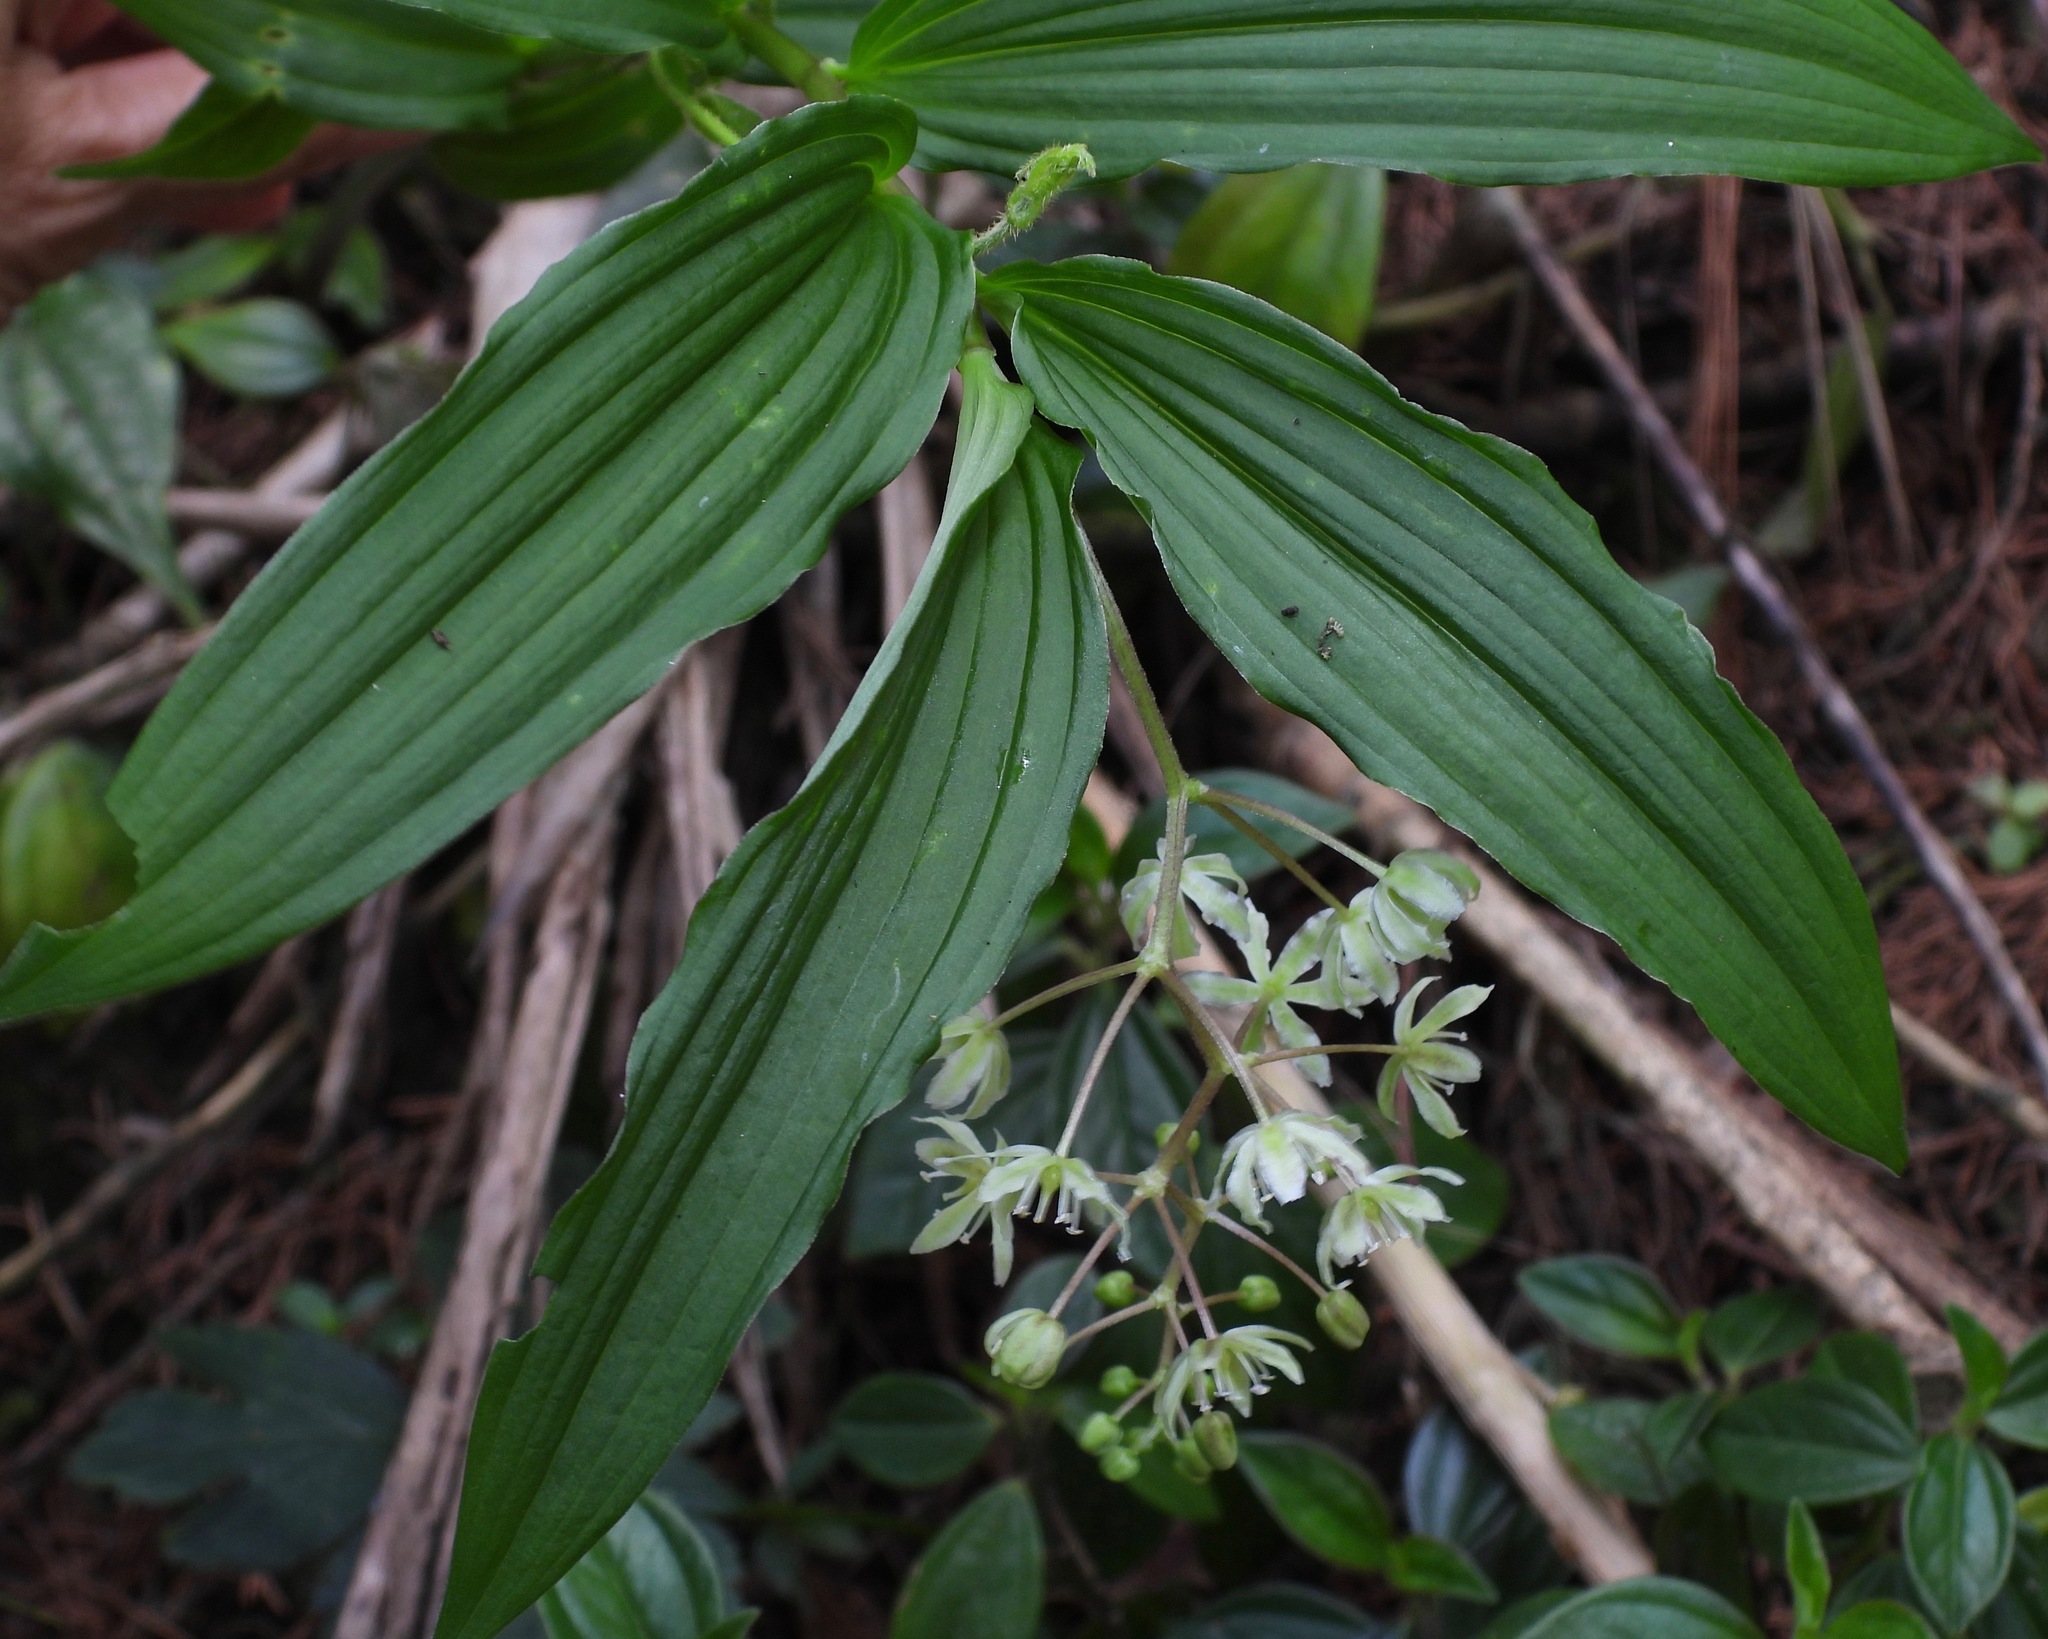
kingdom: Plantae
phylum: Tracheophyta
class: Liliopsida
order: Asparagales
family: Asparagaceae
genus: Maianthemum
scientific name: Maianthemum flexuosum
